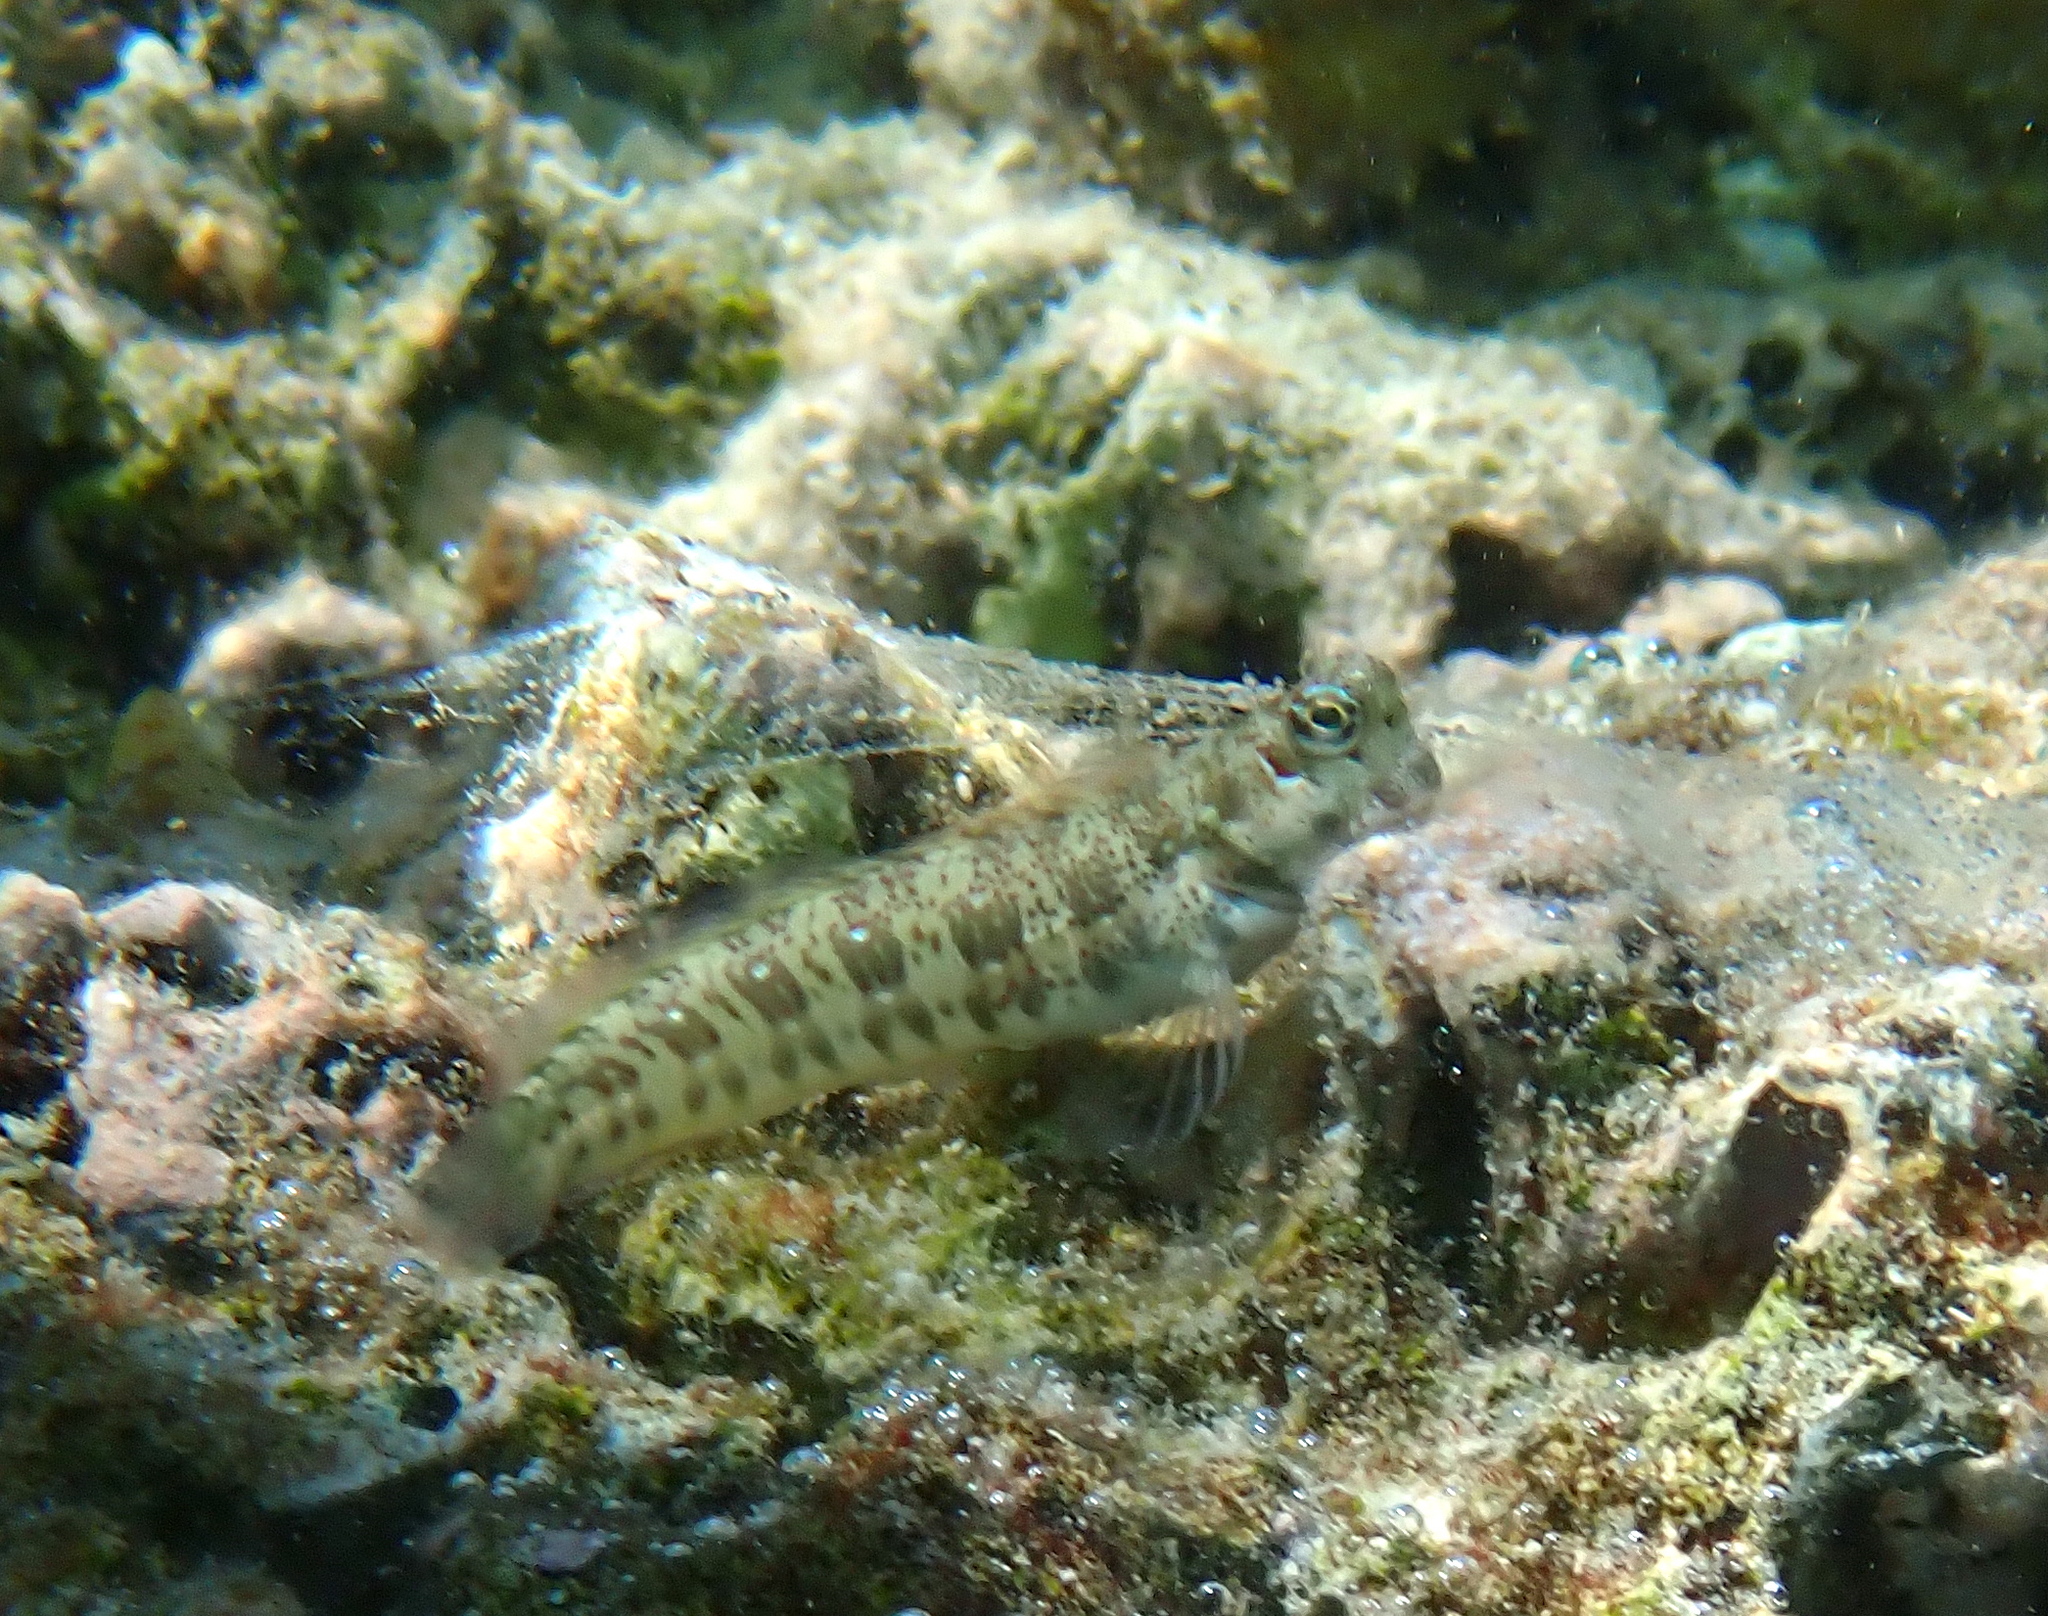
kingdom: Animalia
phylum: Chordata
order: Perciformes
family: Blenniidae
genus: Blenniella
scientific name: Blenniella paula
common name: Blue-dashed rockskipper
